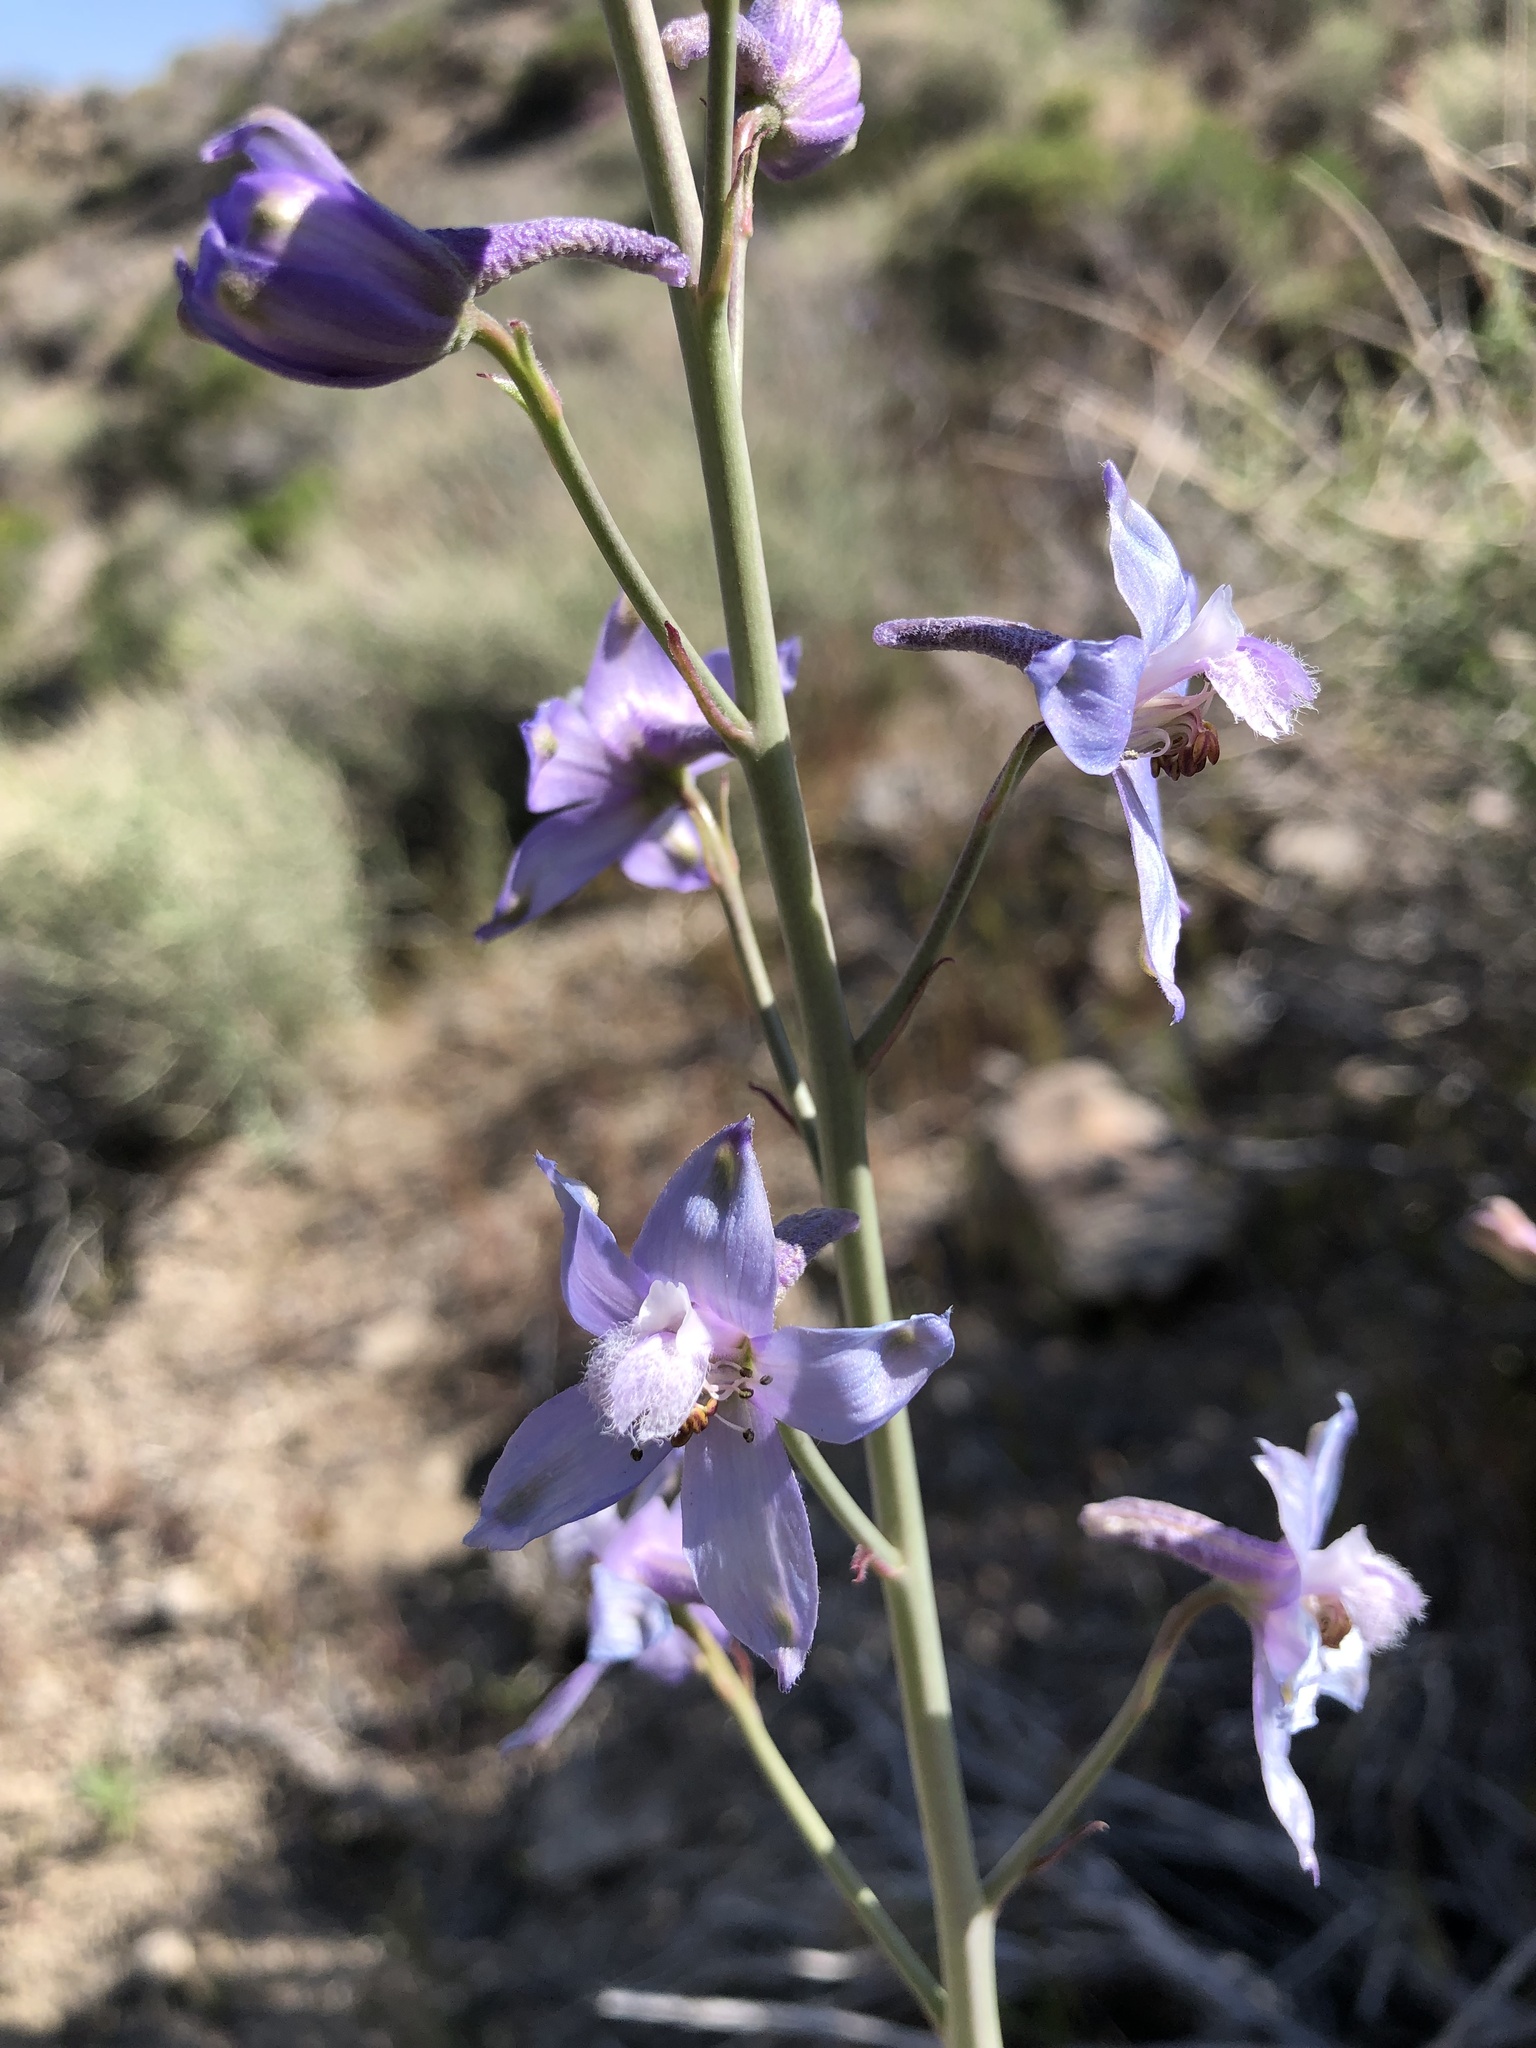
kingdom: Plantae
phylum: Tracheophyta
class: Magnoliopsida
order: Ranunculales
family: Ranunculaceae
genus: Delphinium
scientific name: Delphinium parishii
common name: Apache larkspur
